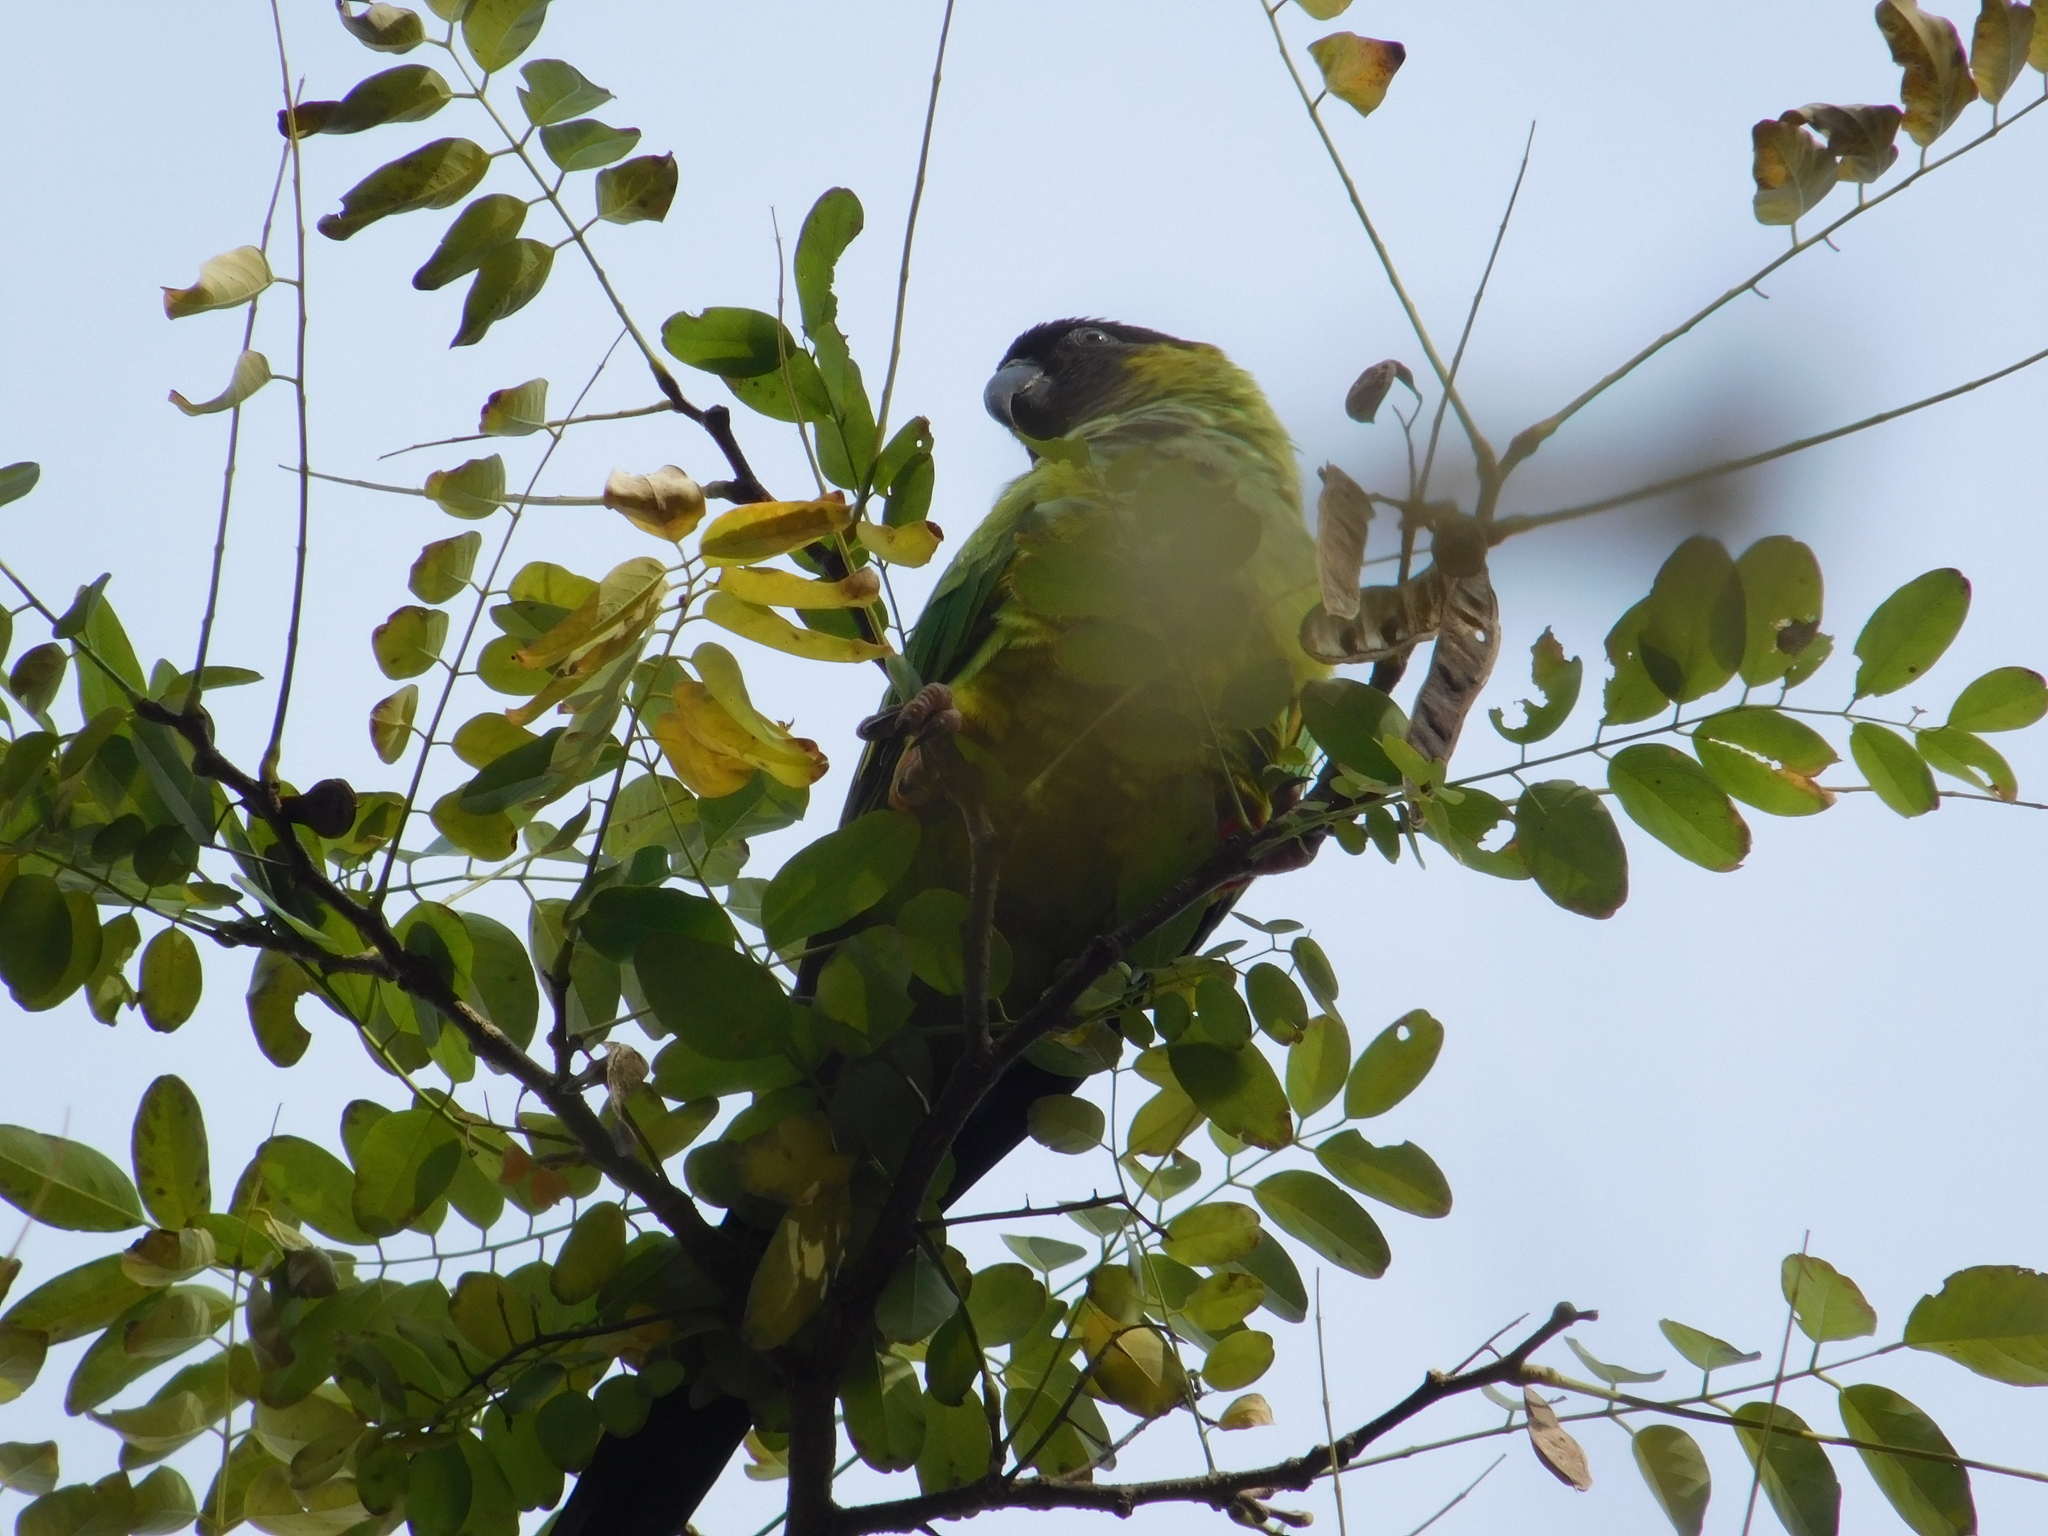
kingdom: Animalia
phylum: Chordata
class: Aves
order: Psittaciformes
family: Psittacidae
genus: Nandayus
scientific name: Nandayus nenday
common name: Nanday parakeet
